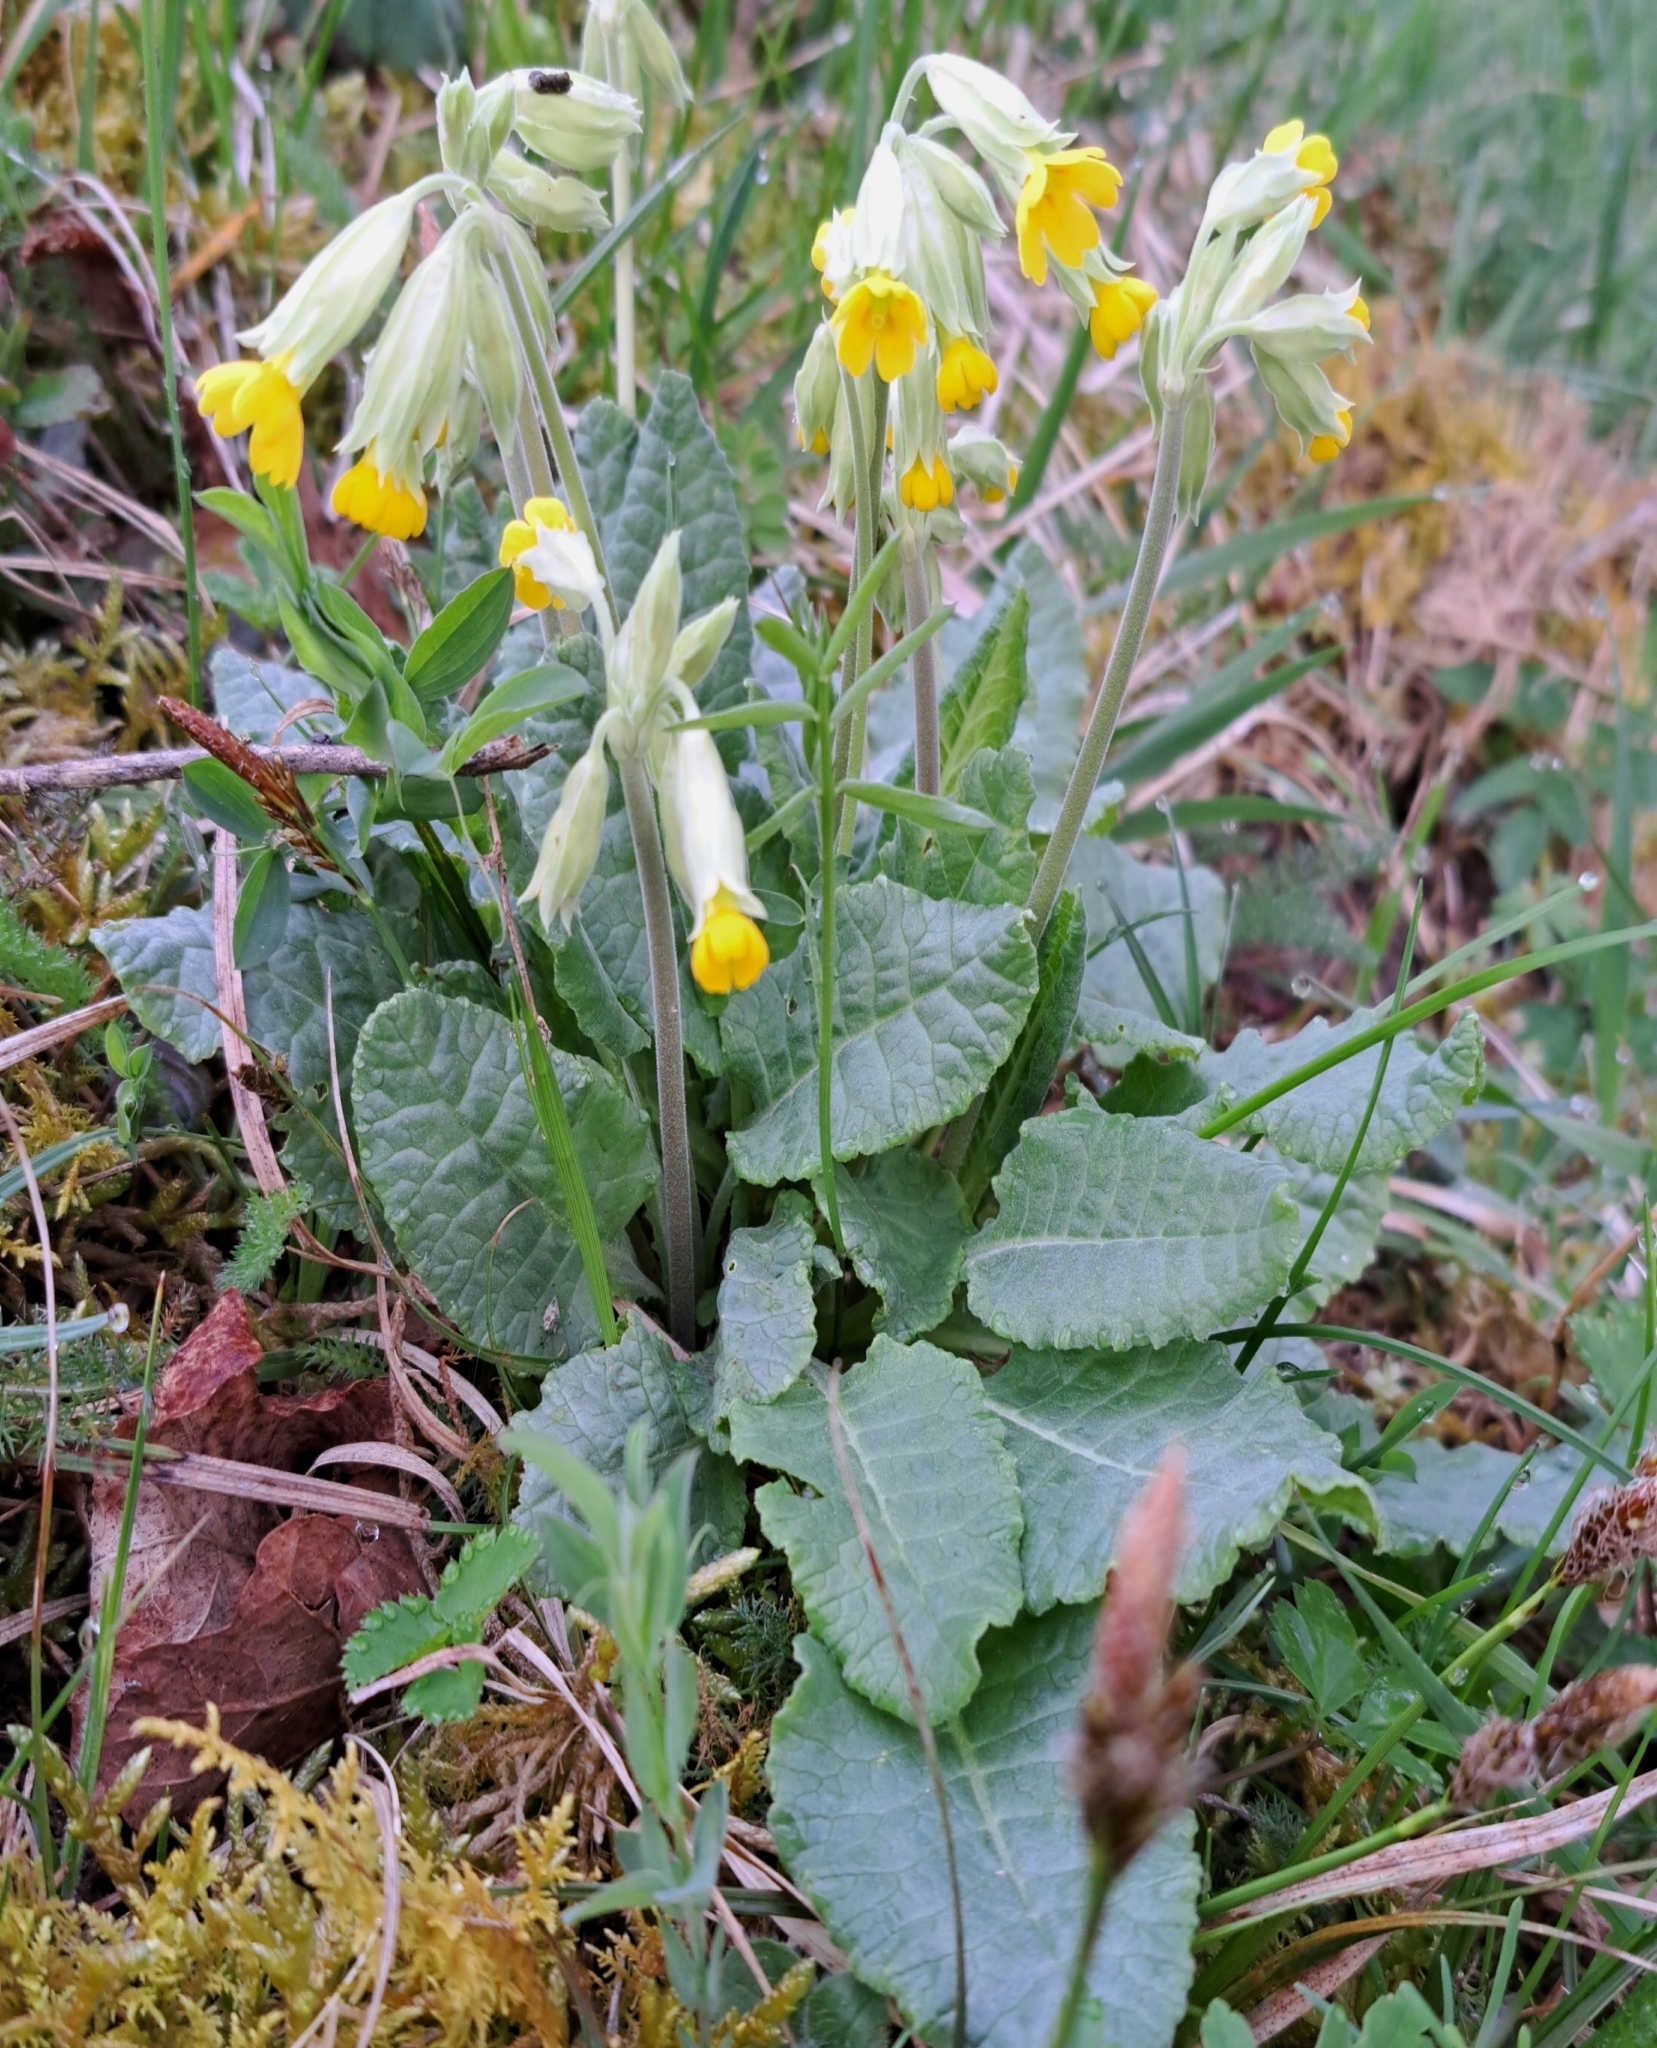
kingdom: Plantae
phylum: Tracheophyta
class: Magnoliopsida
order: Ericales
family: Primulaceae
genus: Primula
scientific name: Primula veris
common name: Cowslip
